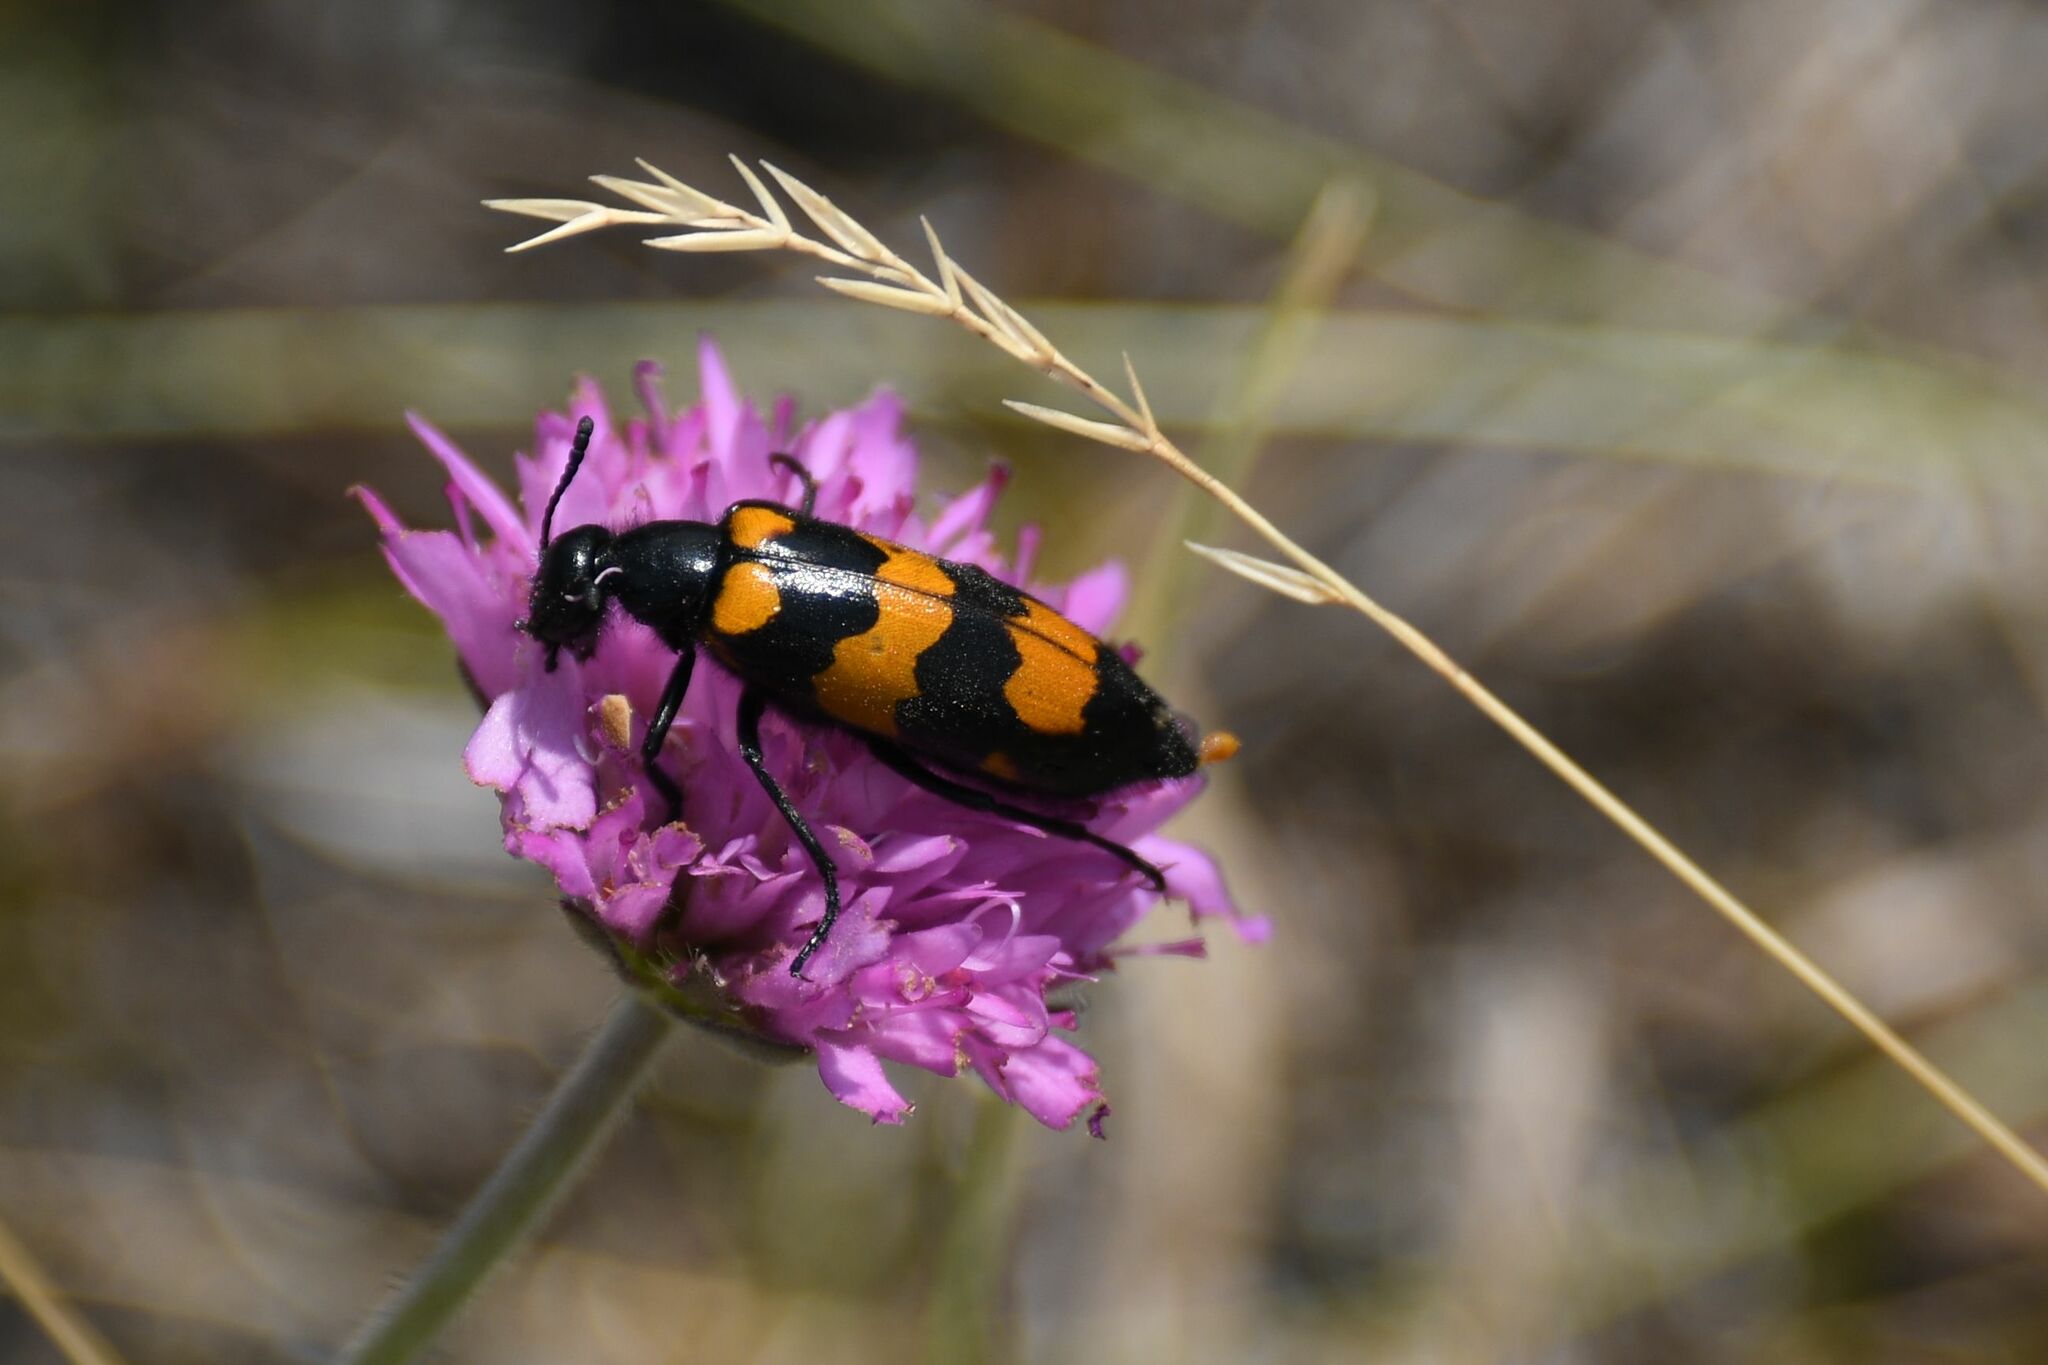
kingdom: Animalia
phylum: Arthropoda
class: Insecta
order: Coleoptera
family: Meloidae
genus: Mylabris
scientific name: Mylabris variabilis
